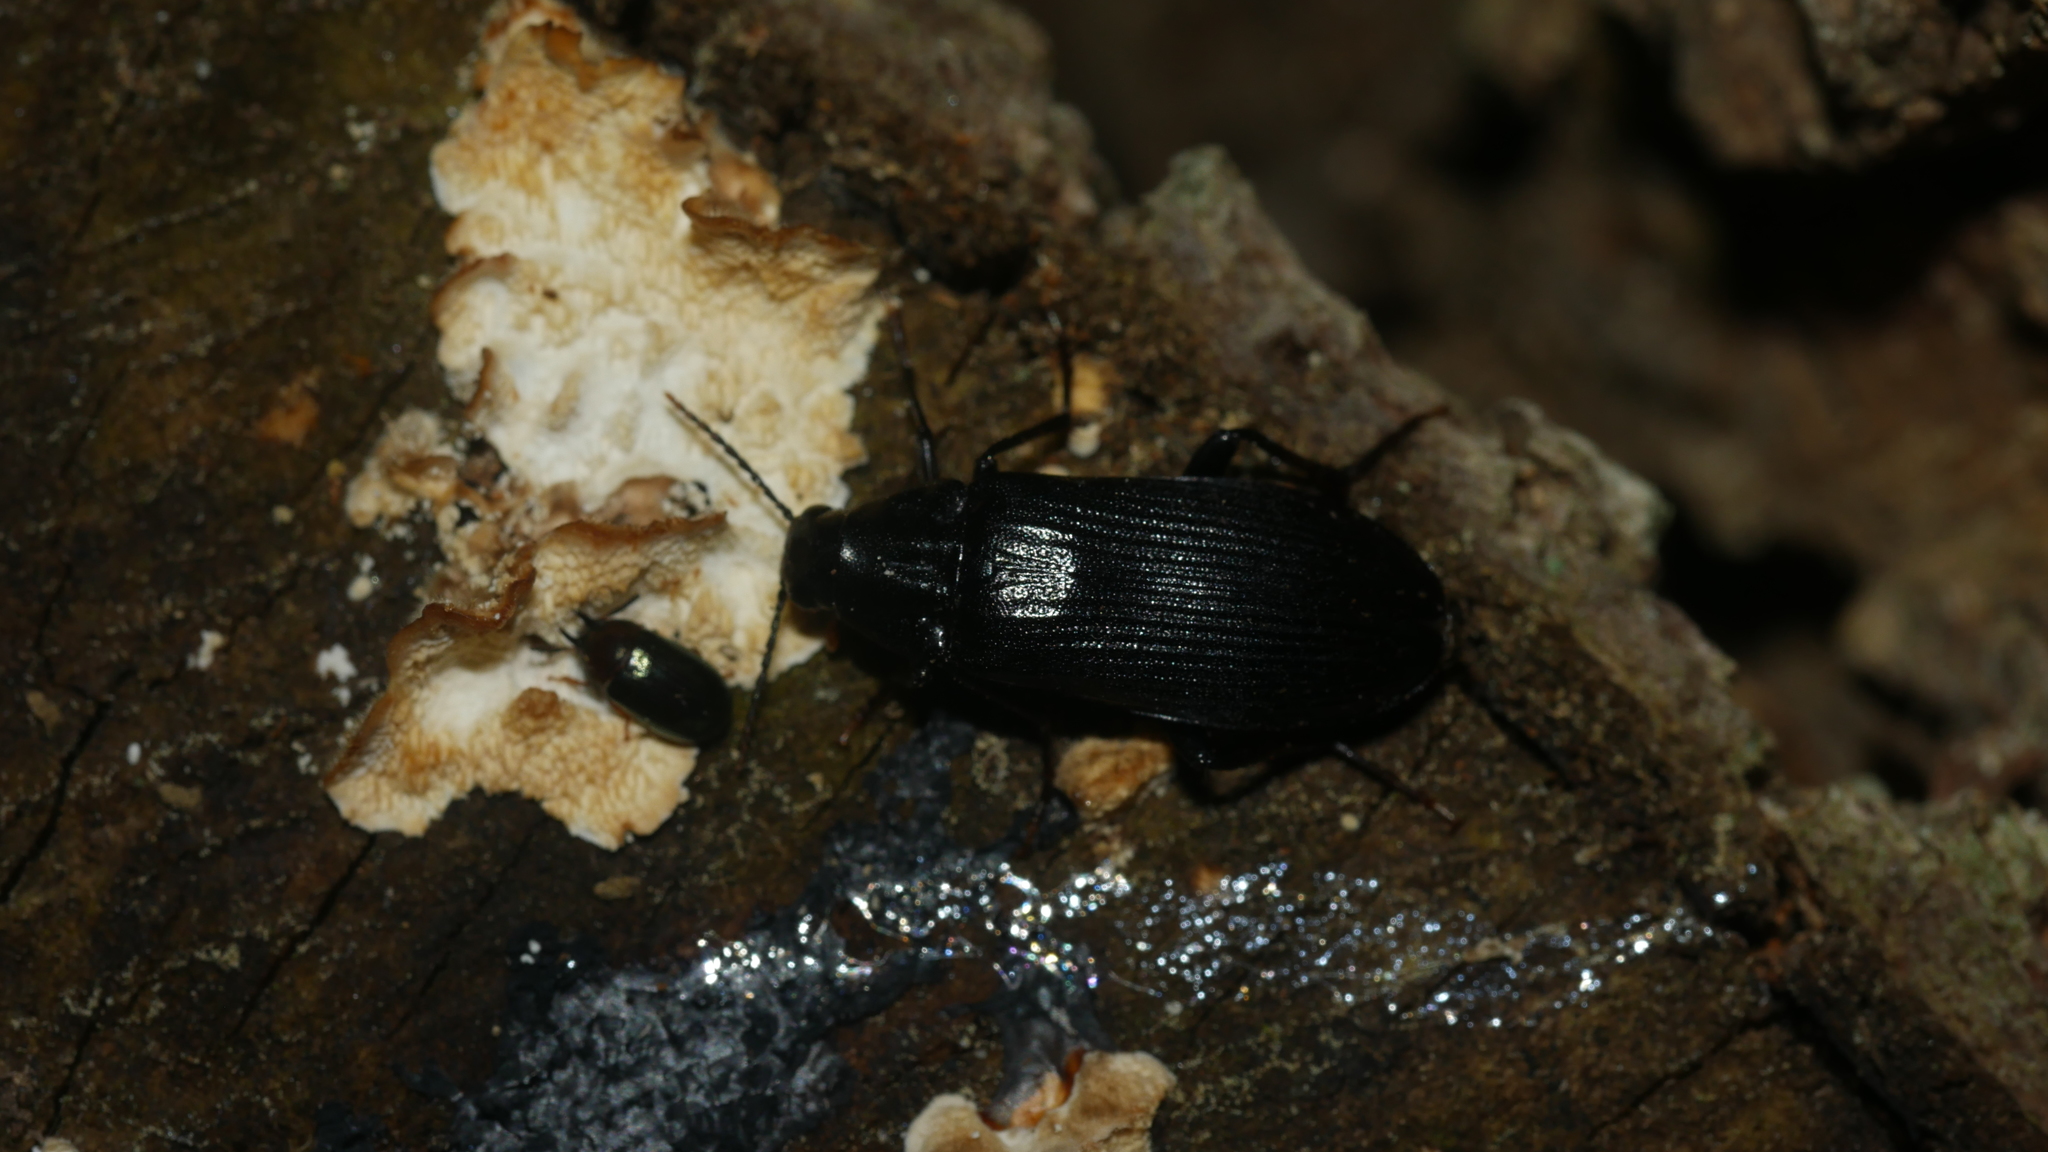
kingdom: Animalia
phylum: Arthropoda
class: Insecta
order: Coleoptera
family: Melandryidae
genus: Melandrya
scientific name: Melandrya striata
